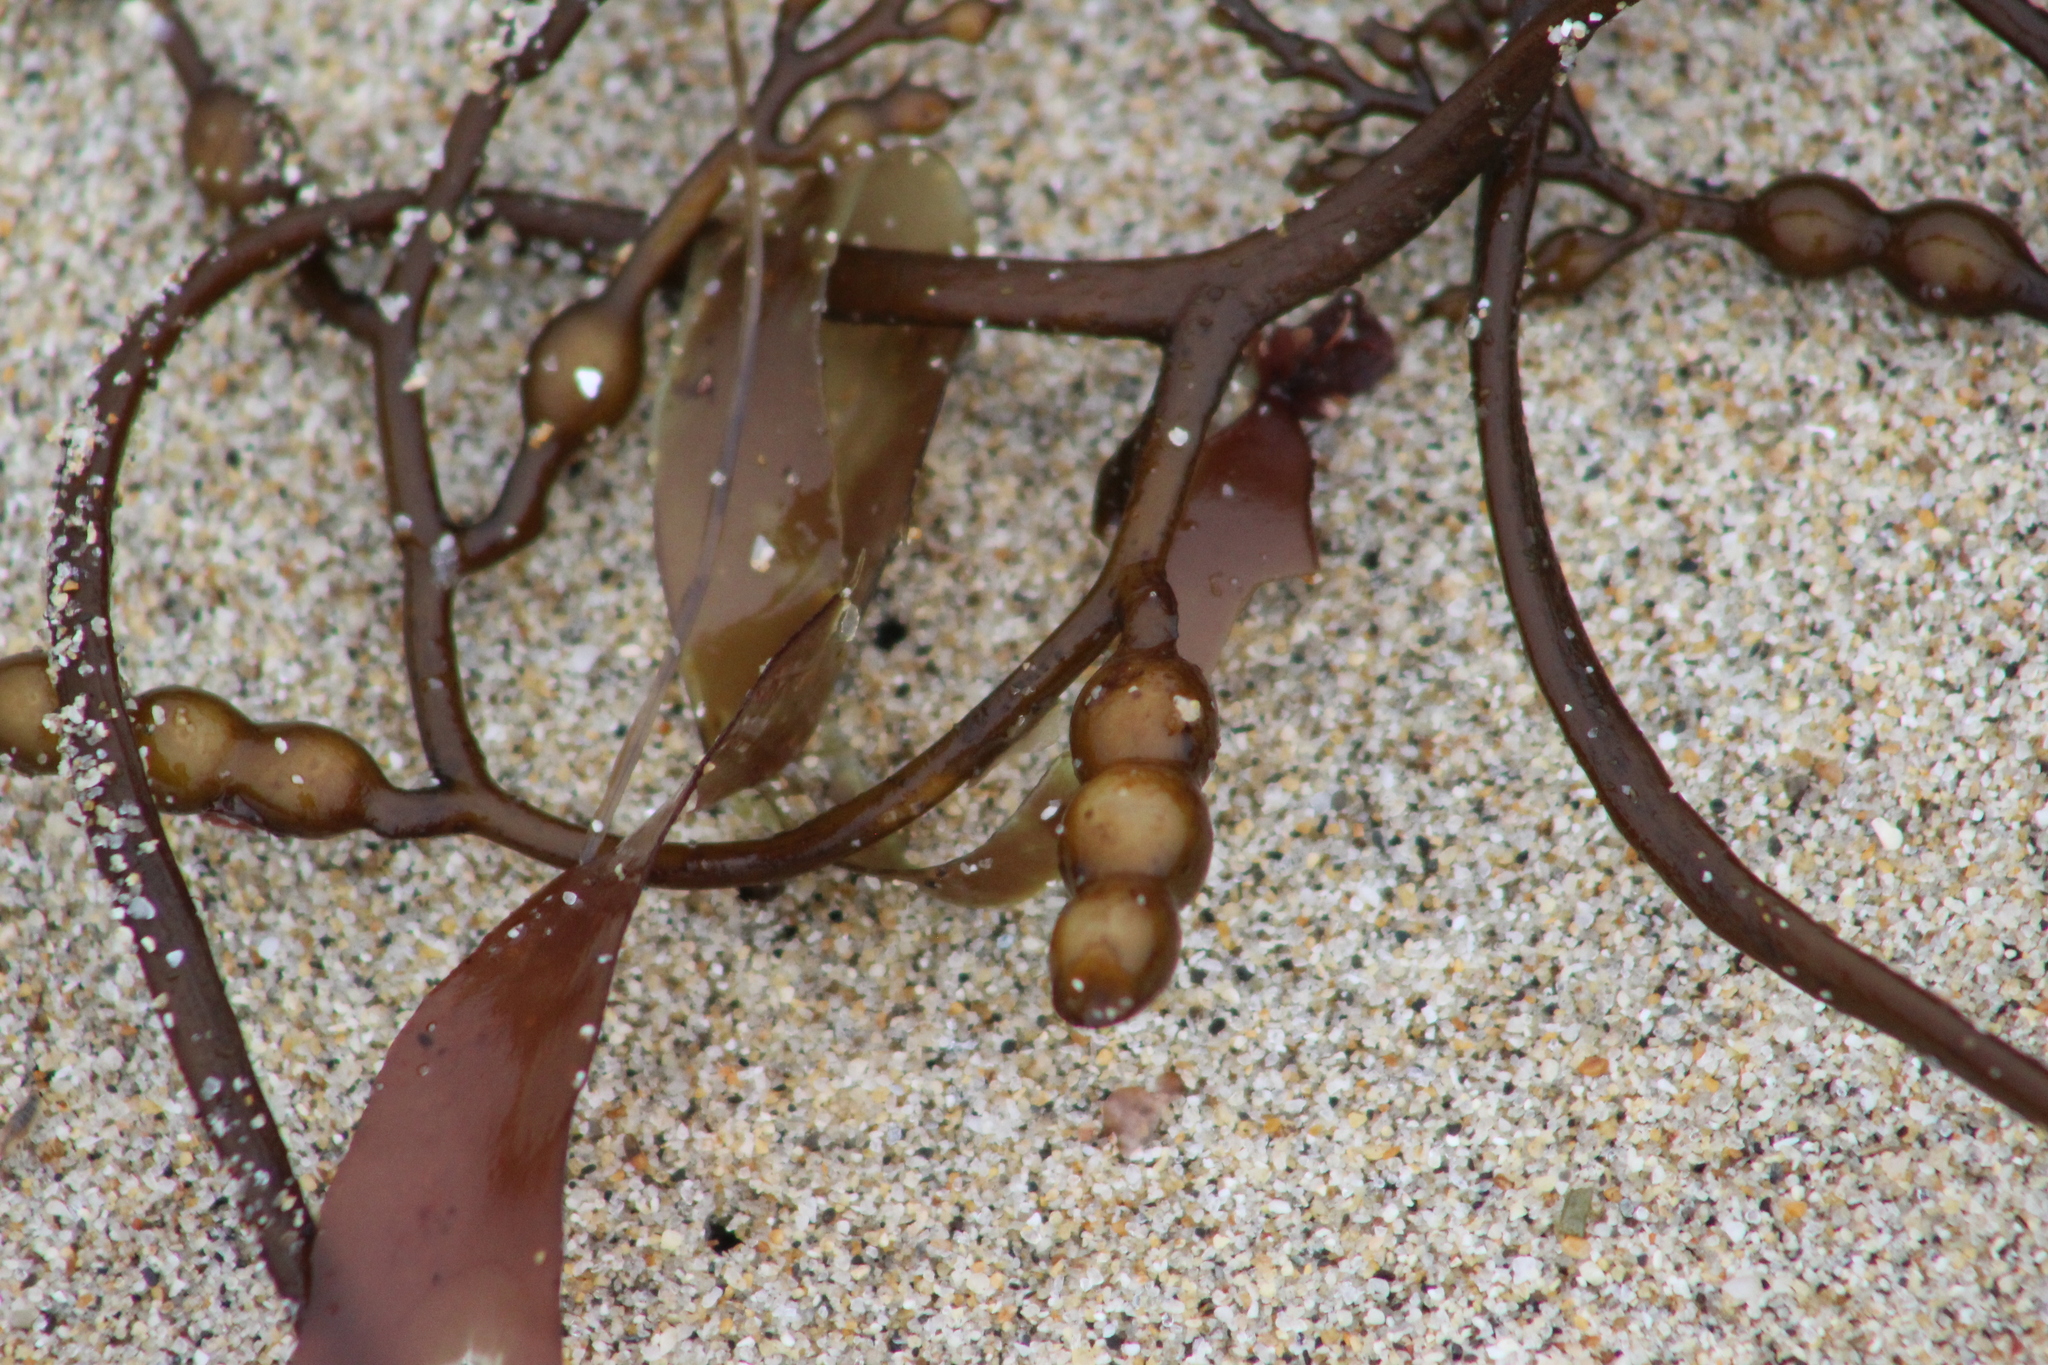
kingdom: Chromista
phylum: Ochrophyta
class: Phaeophyceae
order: Fucales
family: Sargassaceae
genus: Stephanocystis
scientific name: Stephanocystis
